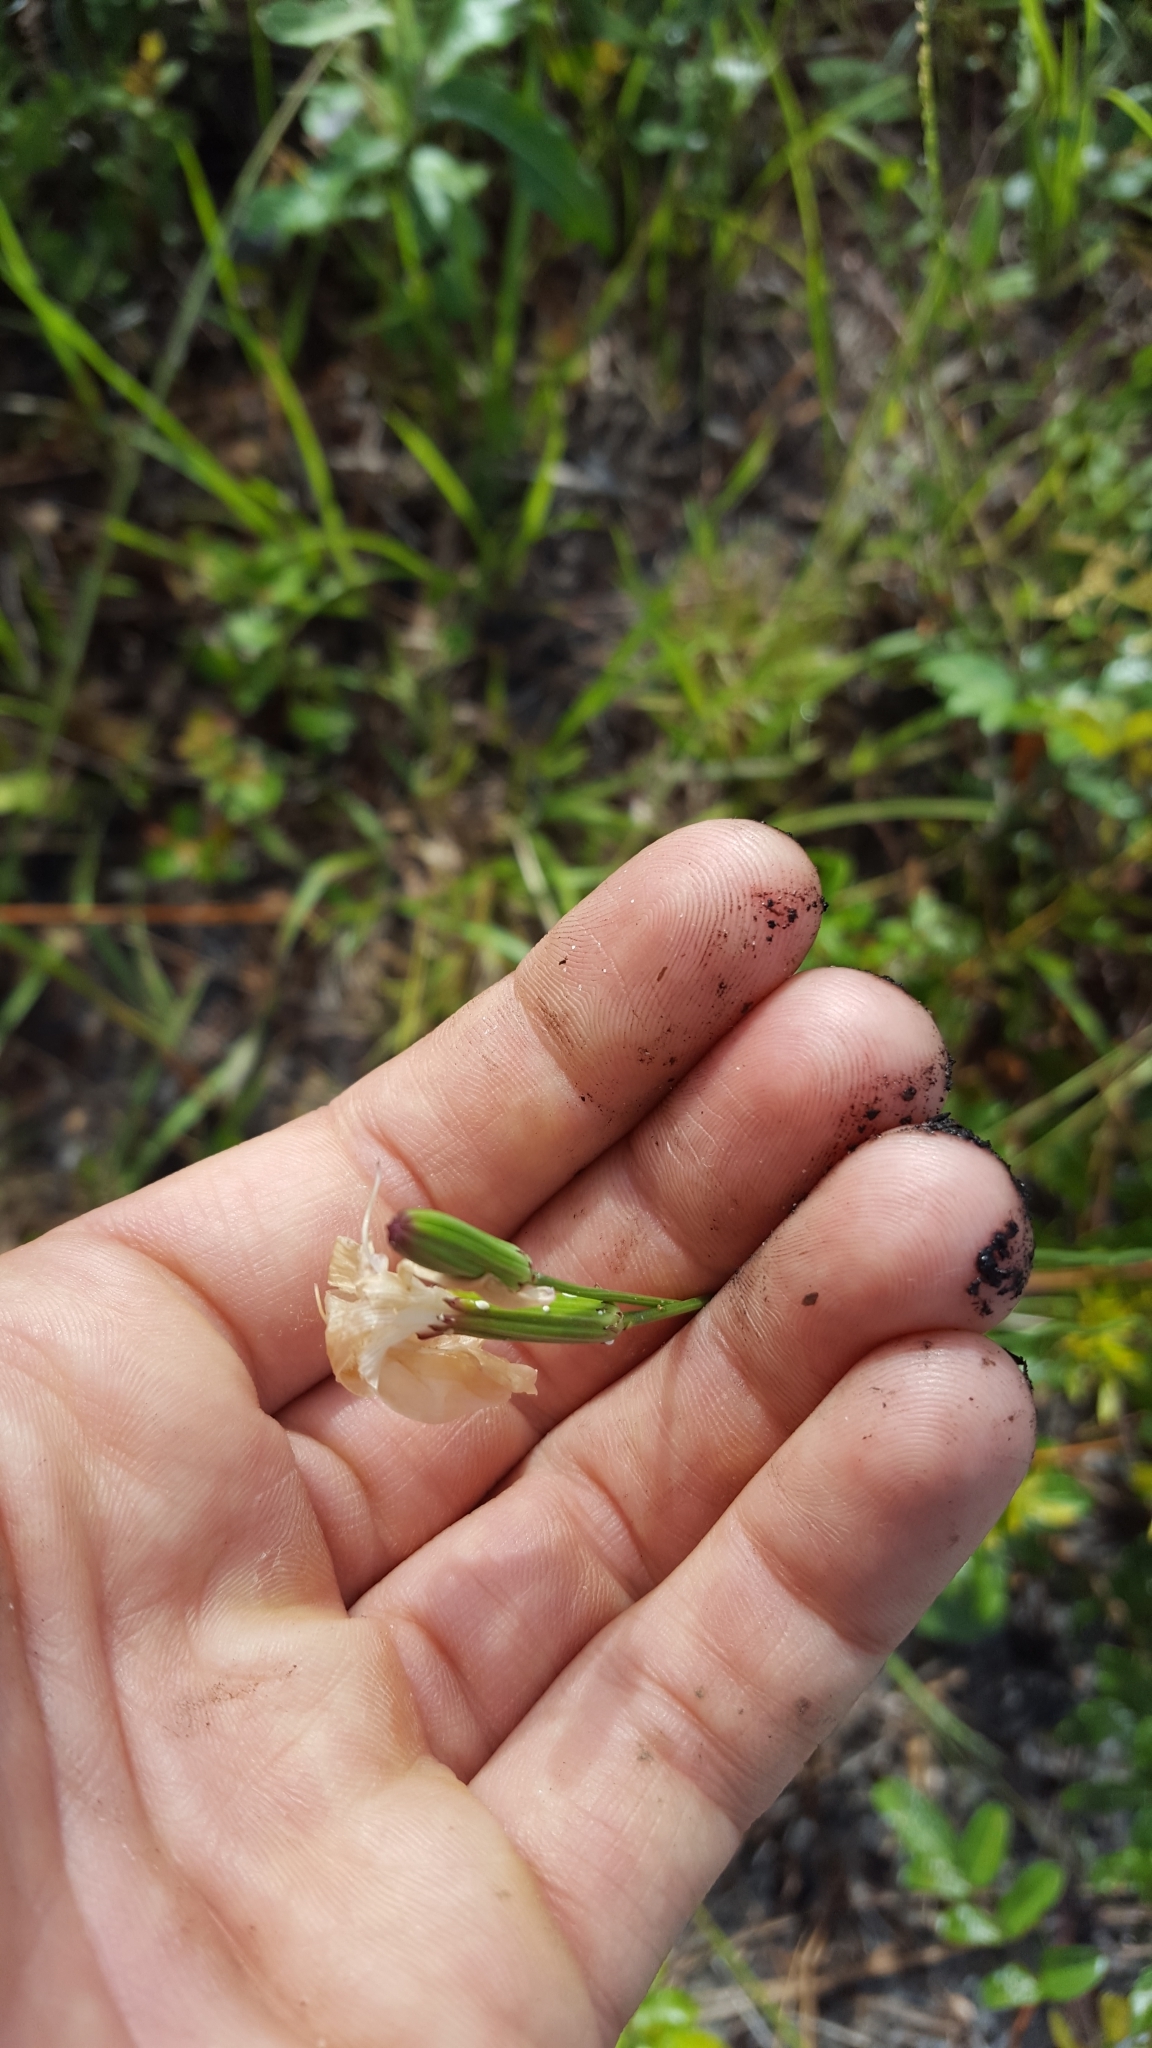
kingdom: Plantae
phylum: Tracheophyta
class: Magnoliopsida
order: Asterales
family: Asteraceae
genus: Lygodesmia
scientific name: Lygodesmia aphylla
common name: Rose-rush
